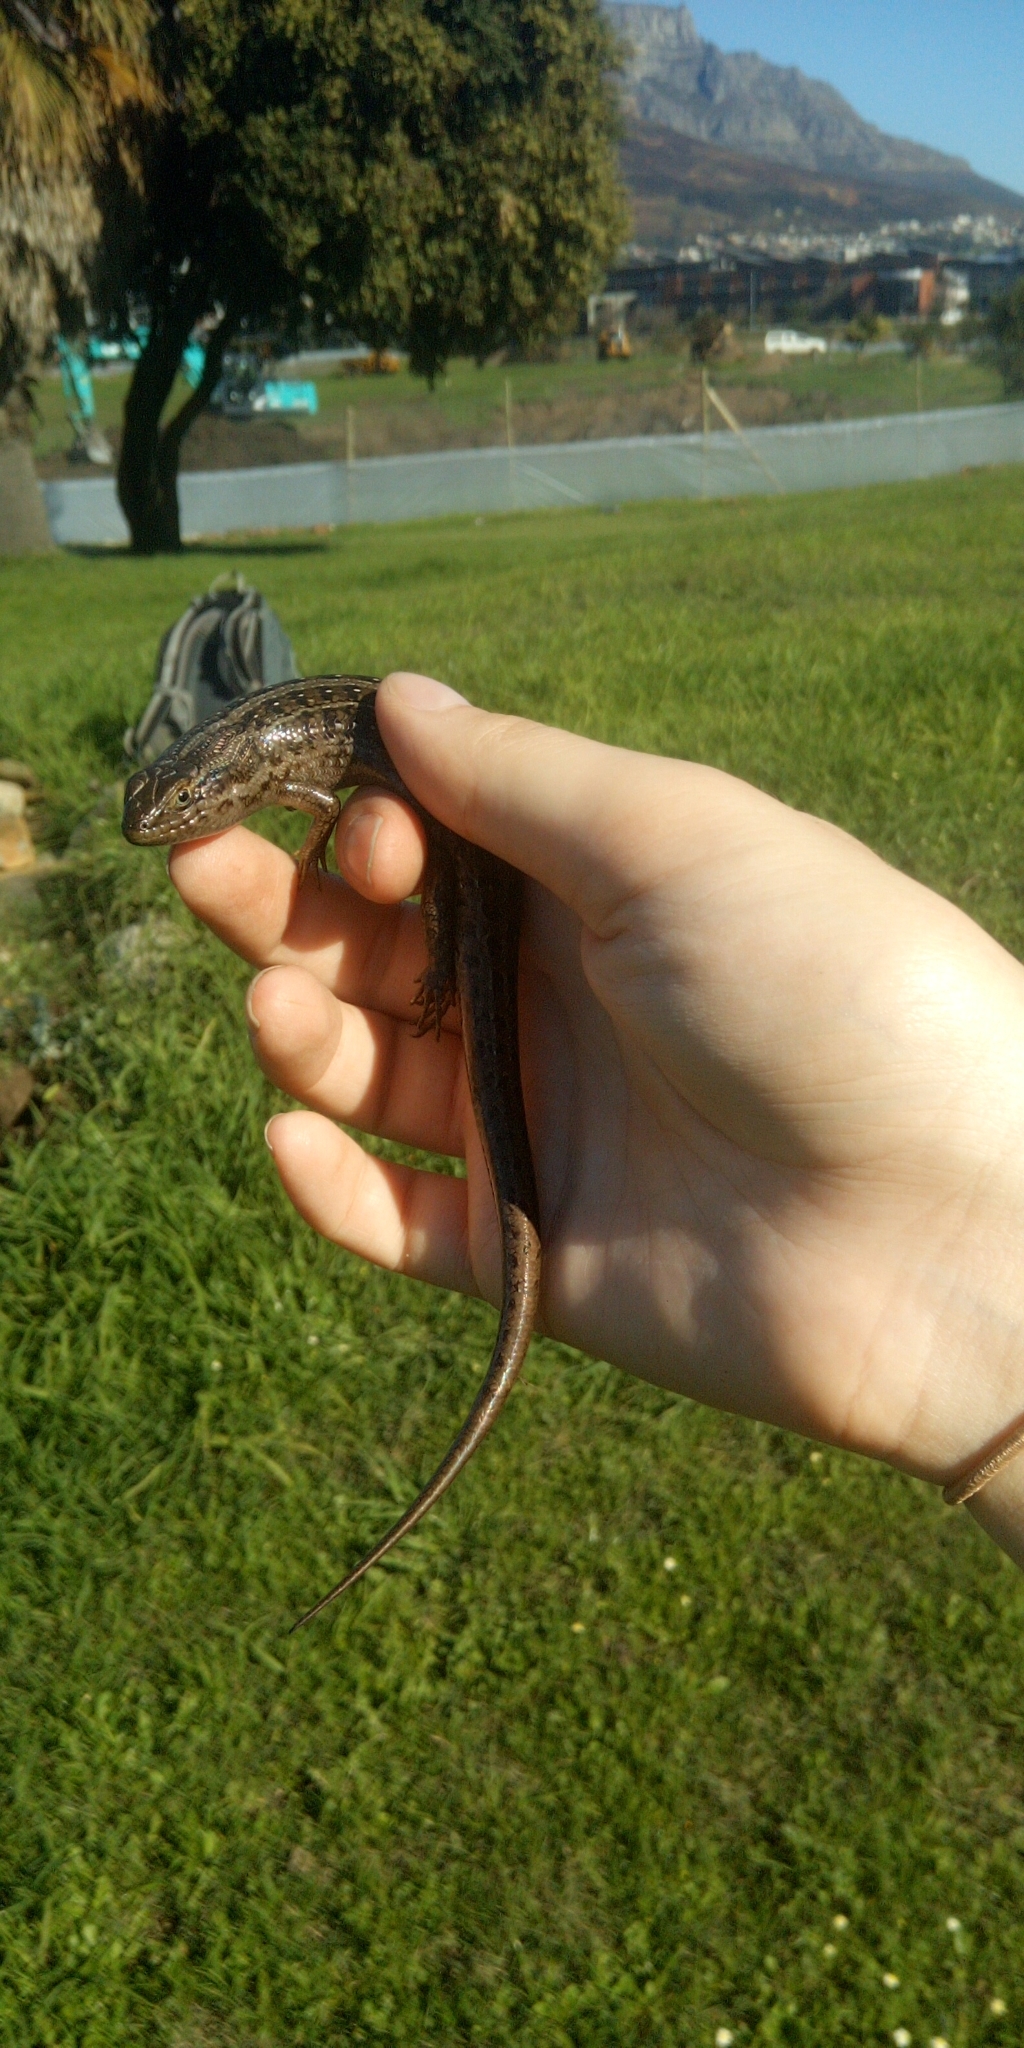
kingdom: Animalia
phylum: Chordata
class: Squamata
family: Scincidae
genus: Trachylepis
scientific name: Trachylepis capensis
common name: Cape skink
